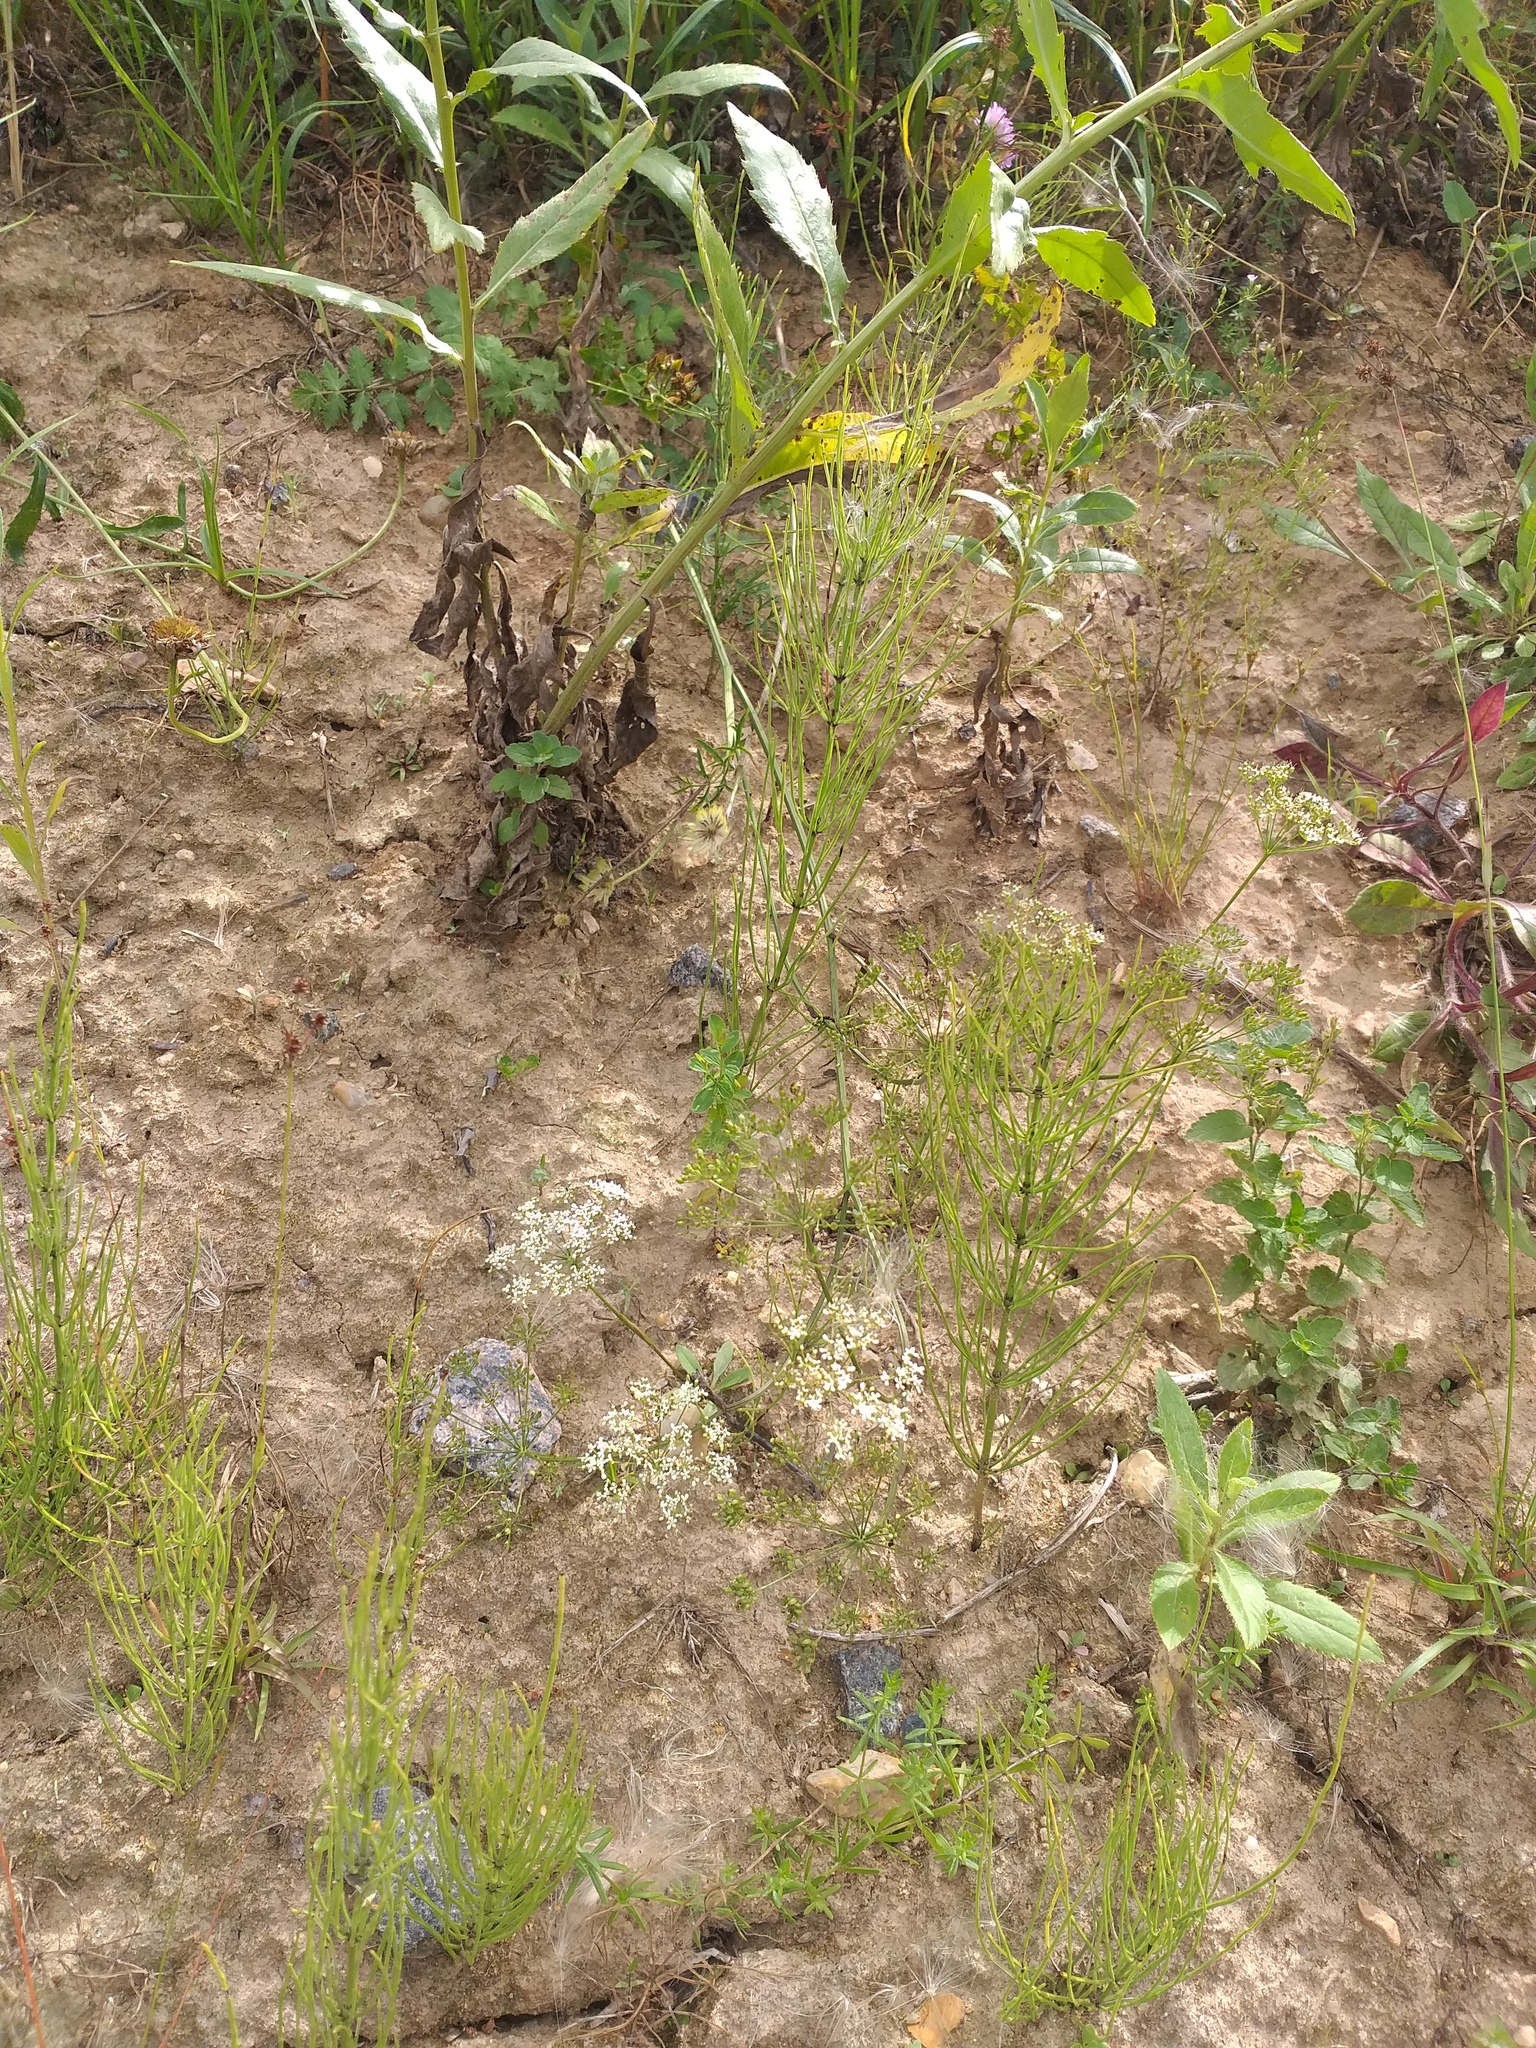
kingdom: Plantae
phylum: Tracheophyta
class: Magnoliopsida
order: Apiales
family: Apiaceae
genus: Pimpinella
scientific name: Pimpinella saxifraga
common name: Burnet-saxifrage
